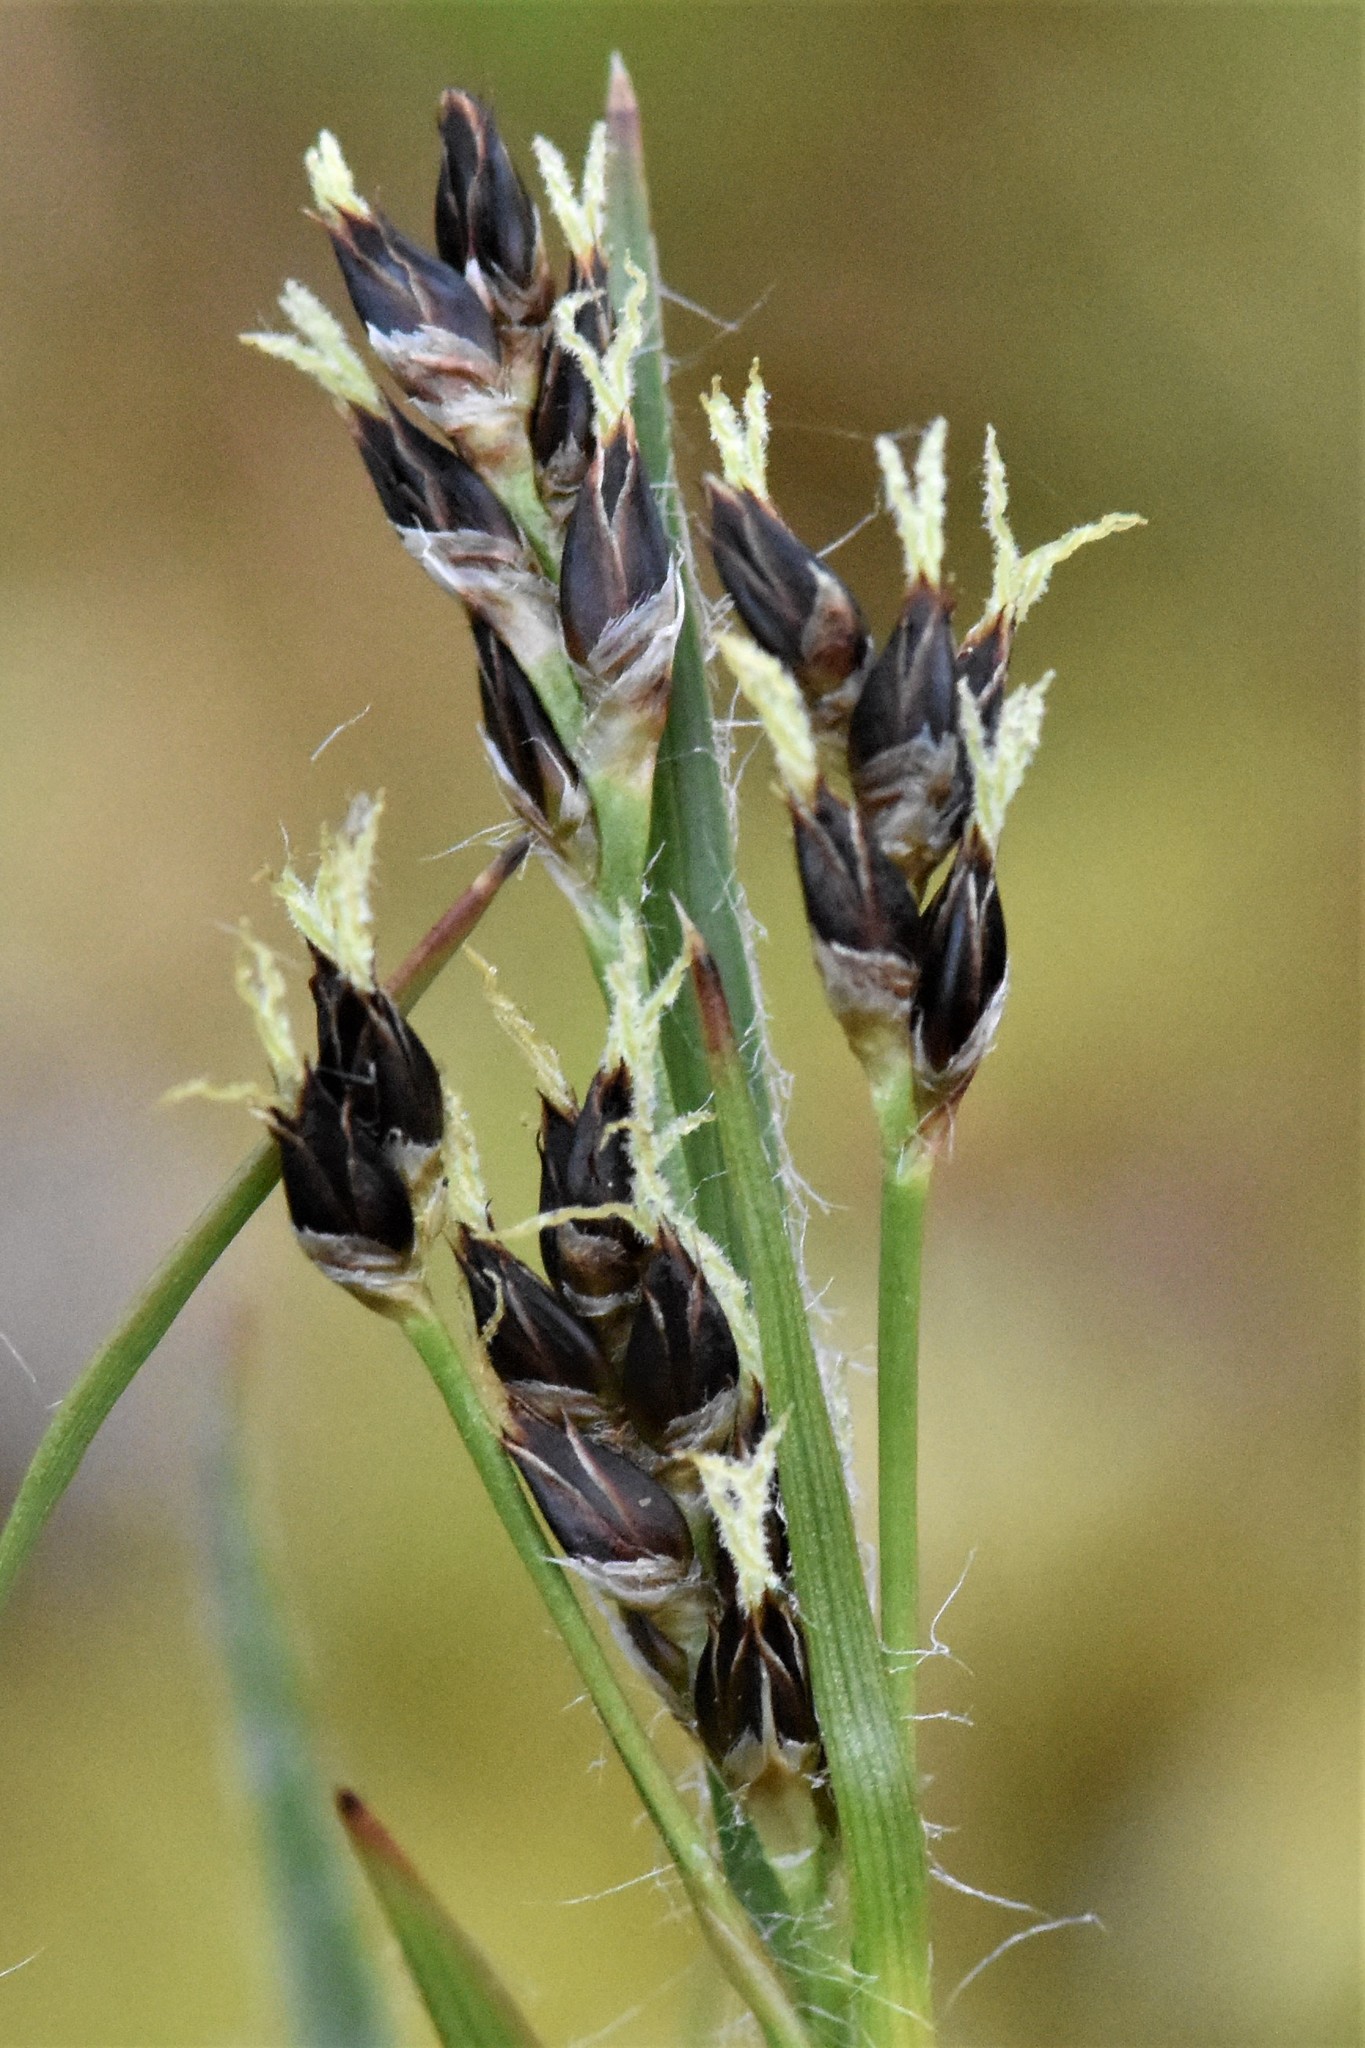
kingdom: Plantae
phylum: Tracheophyta
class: Liliopsida
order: Poales
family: Juncaceae
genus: Luzula
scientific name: Luzula macrantha
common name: Large-anthered woodrush
